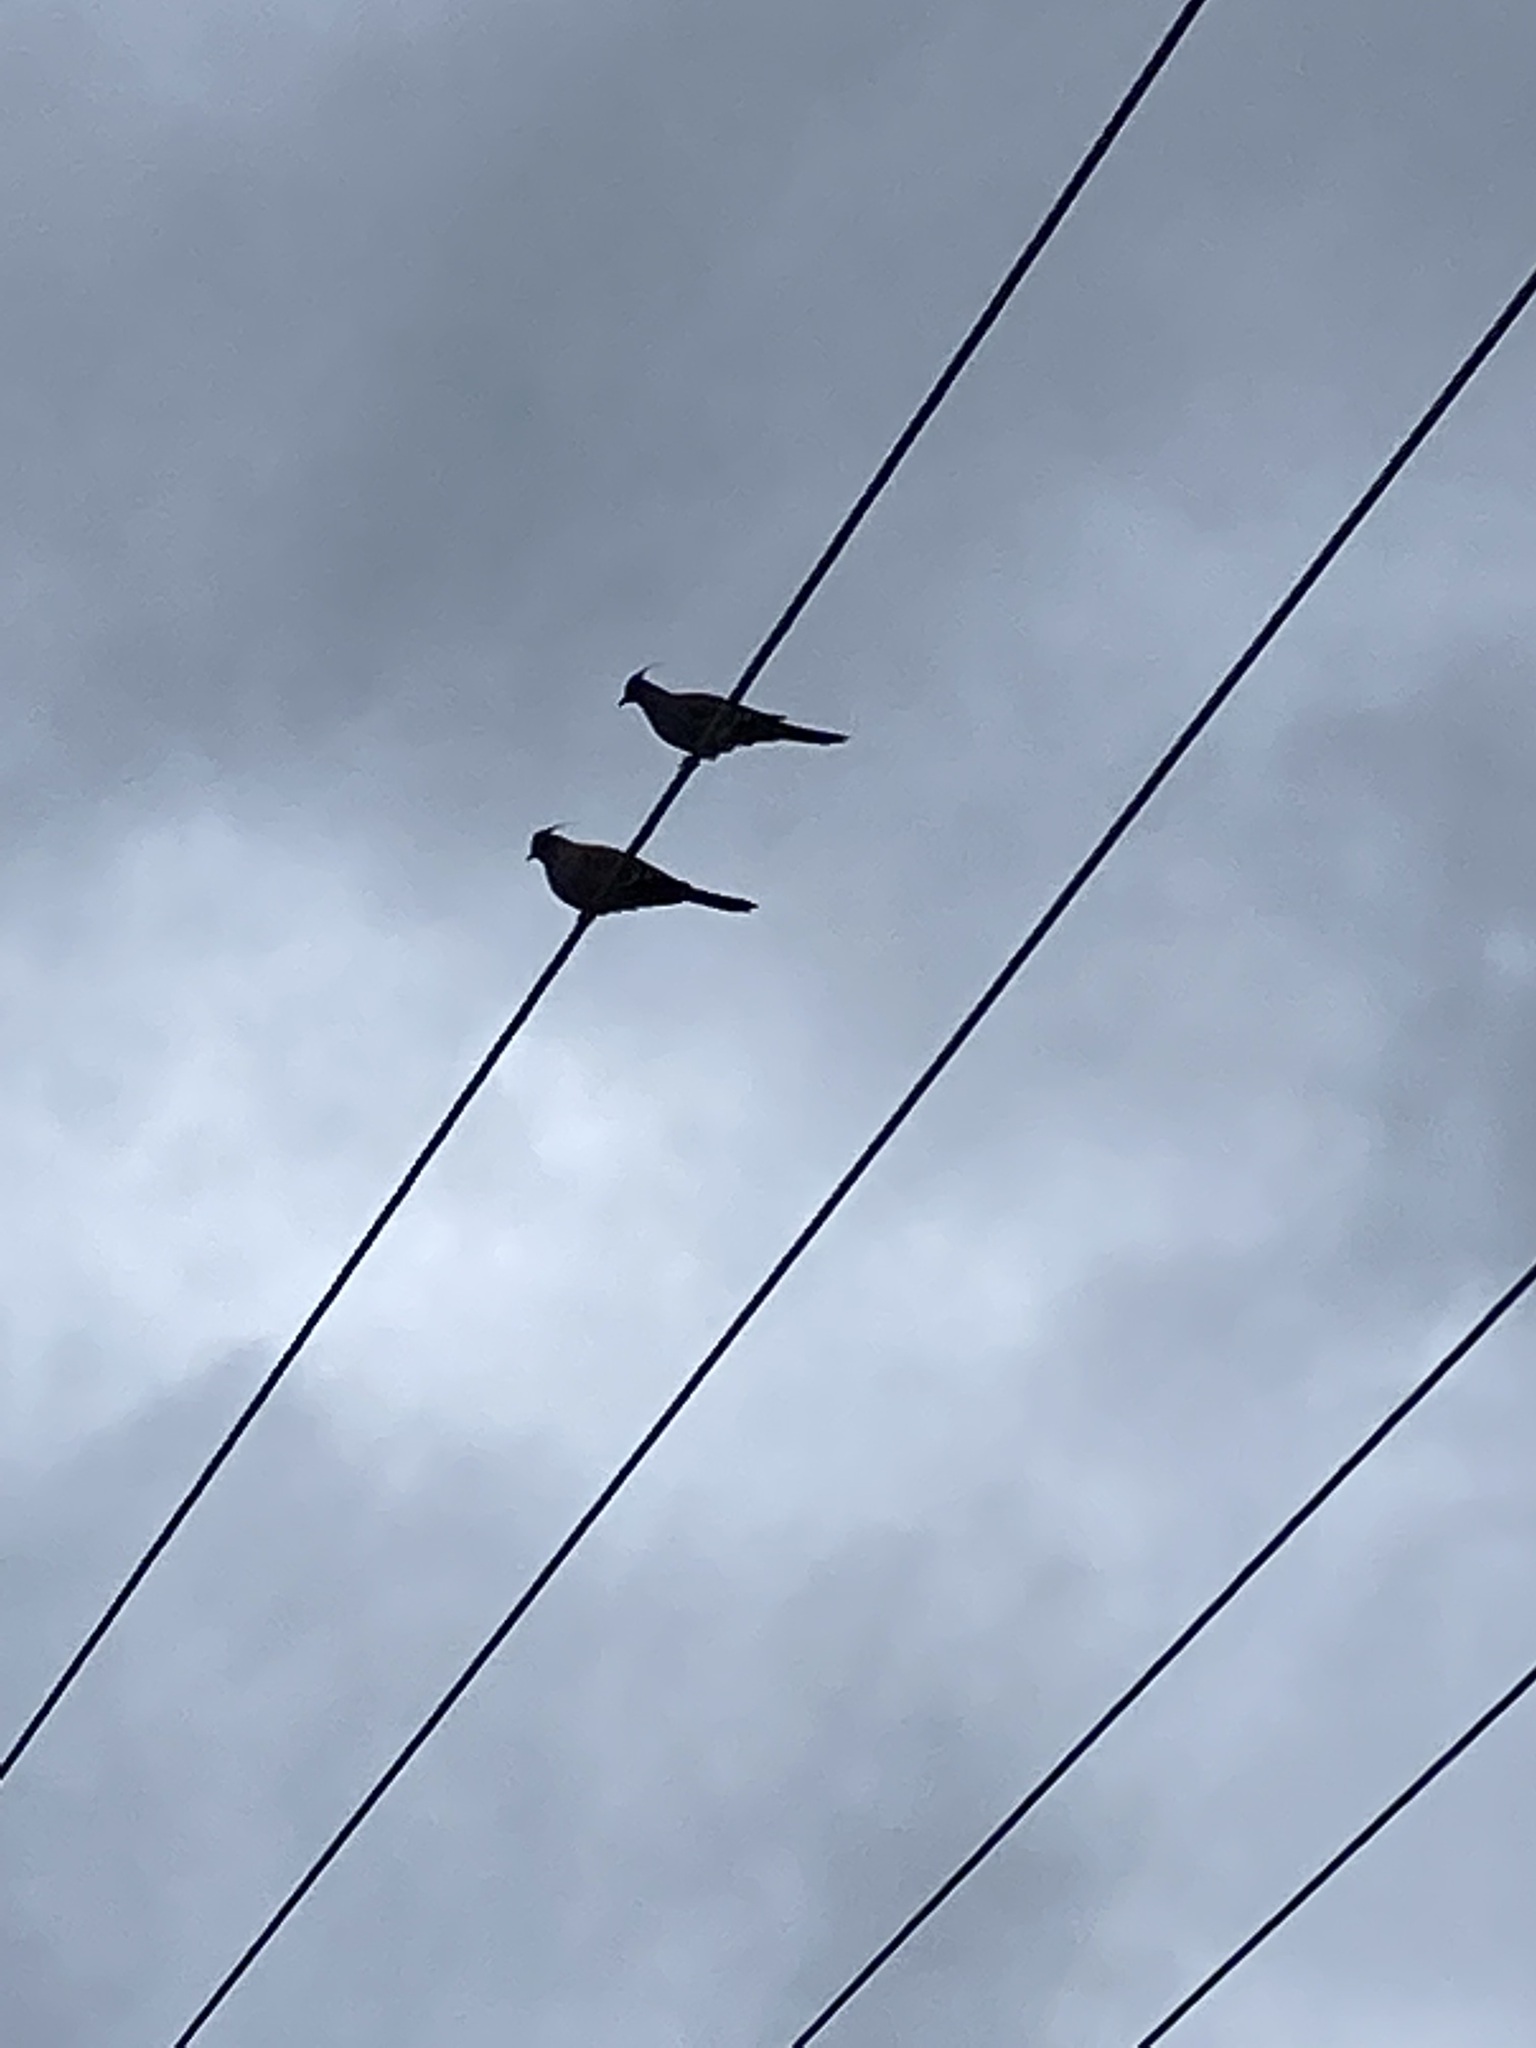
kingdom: Animalia
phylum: Chordata
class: Aves
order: Columbiformes
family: Columbidae
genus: Ocyphaps
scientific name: Ocyphaps lophotes
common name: Crested pigeon
